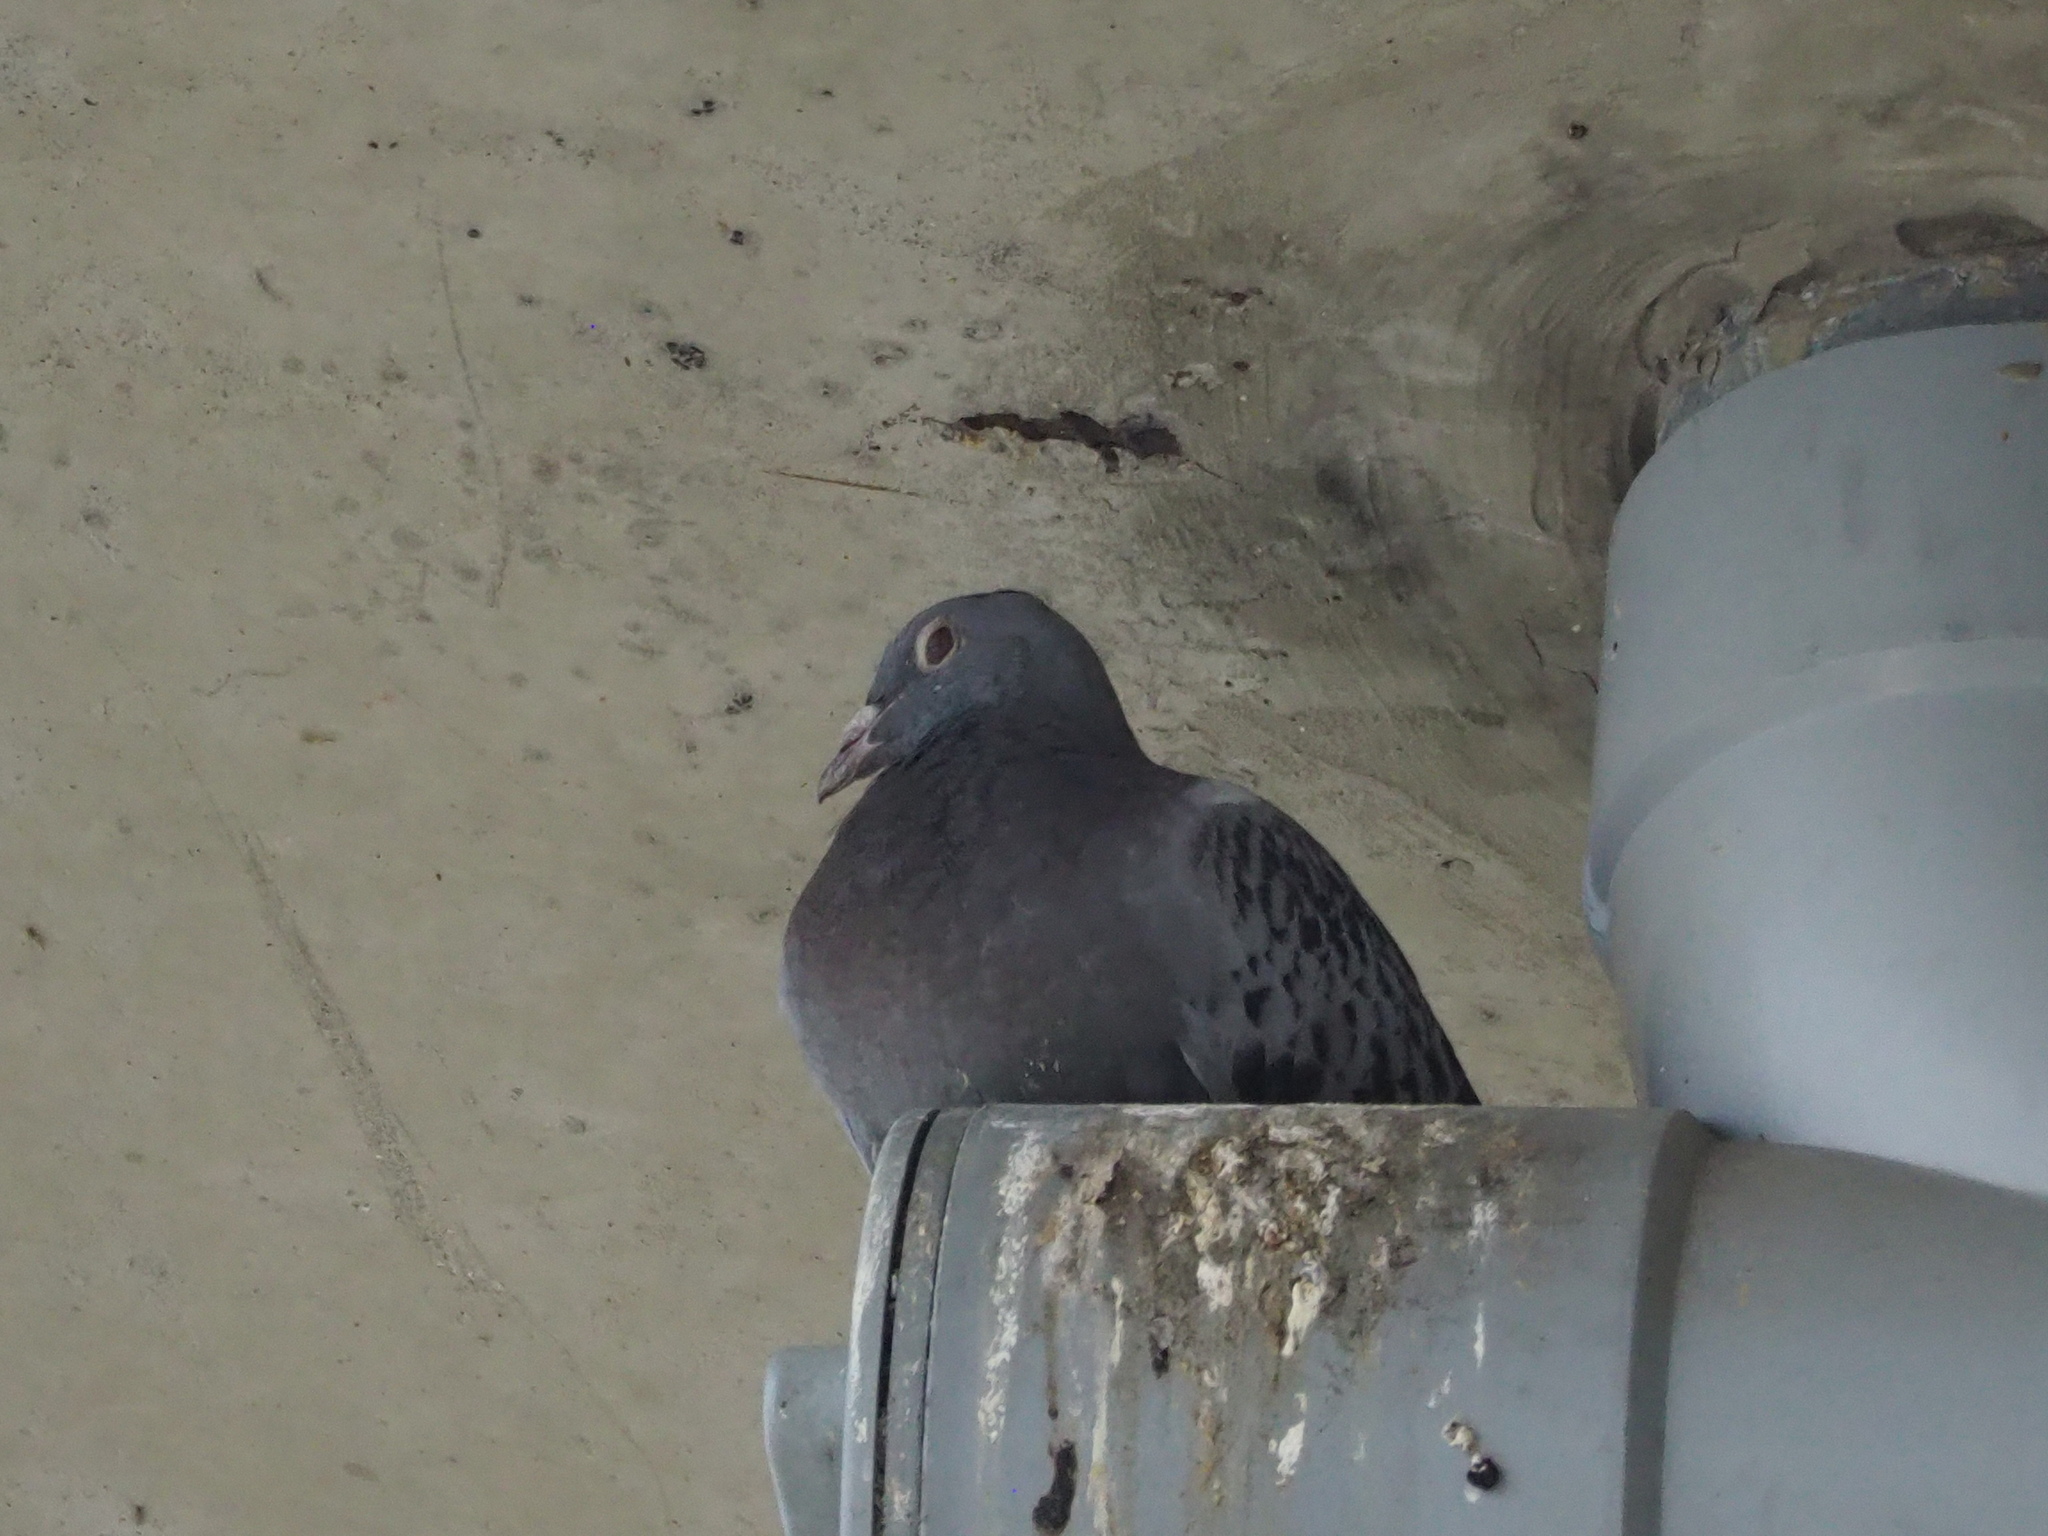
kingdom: Animalia
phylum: Chordata
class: Aves
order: Columbiformes
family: Columbidae
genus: Columba
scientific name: Columba livia
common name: Rock pigeon
